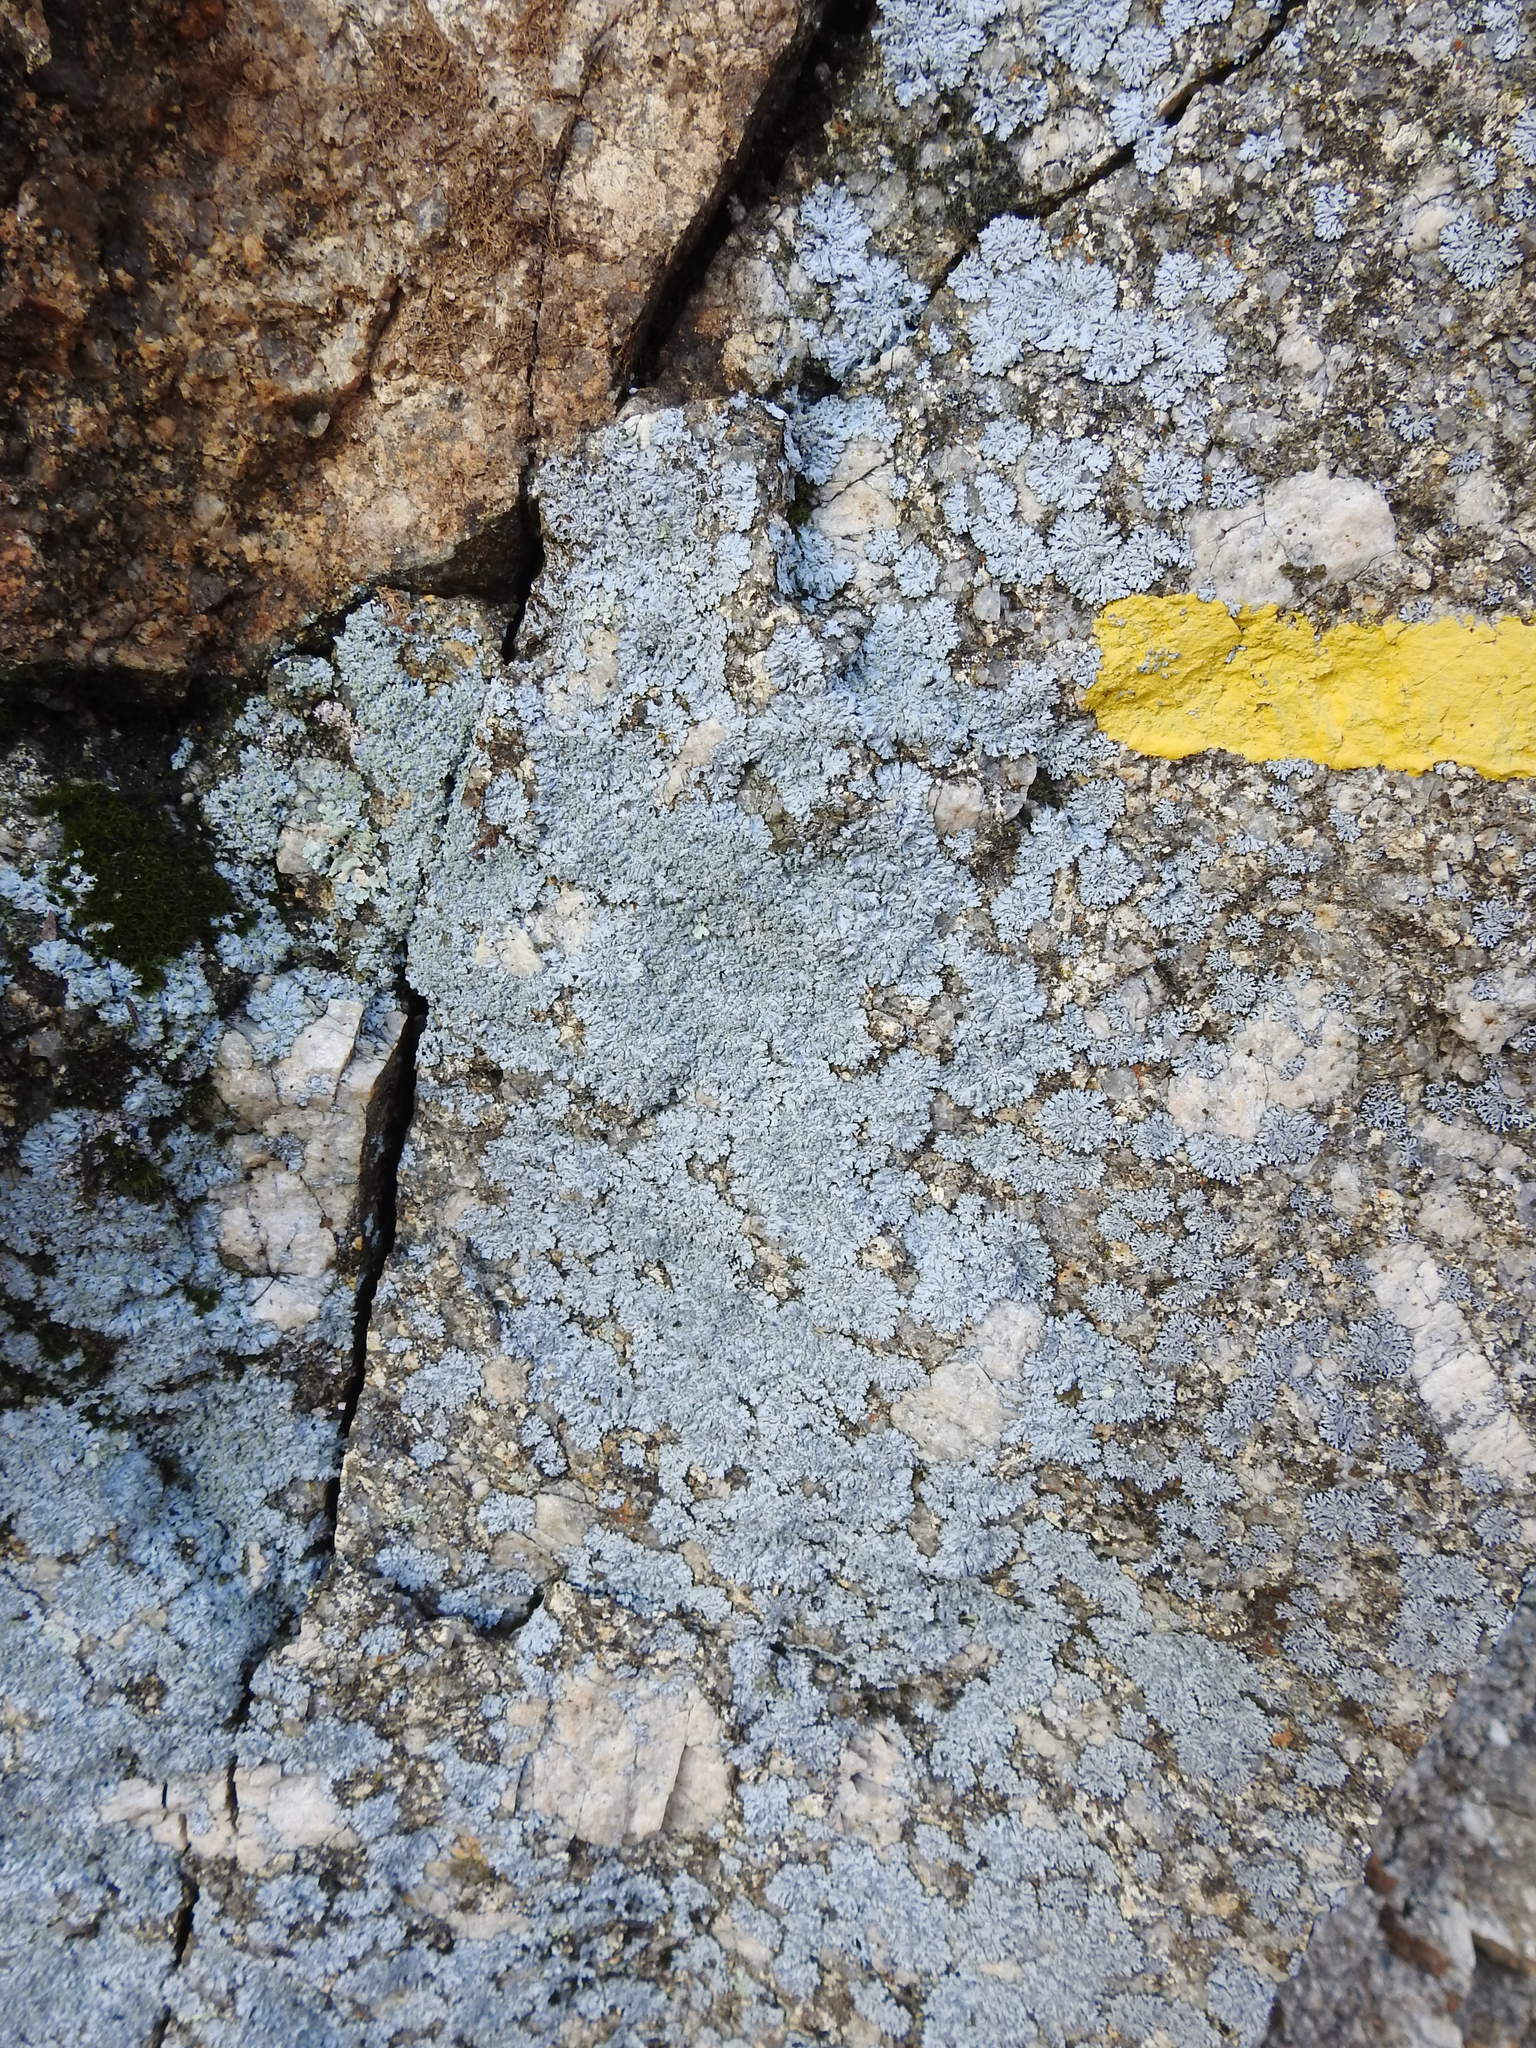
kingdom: Fungi
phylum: Ascomycota
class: Lecanoromycetes
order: Caliciales
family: Physciaceae
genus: Physcia
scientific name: Physcia caesia
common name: Blue-gray rosette lichen
